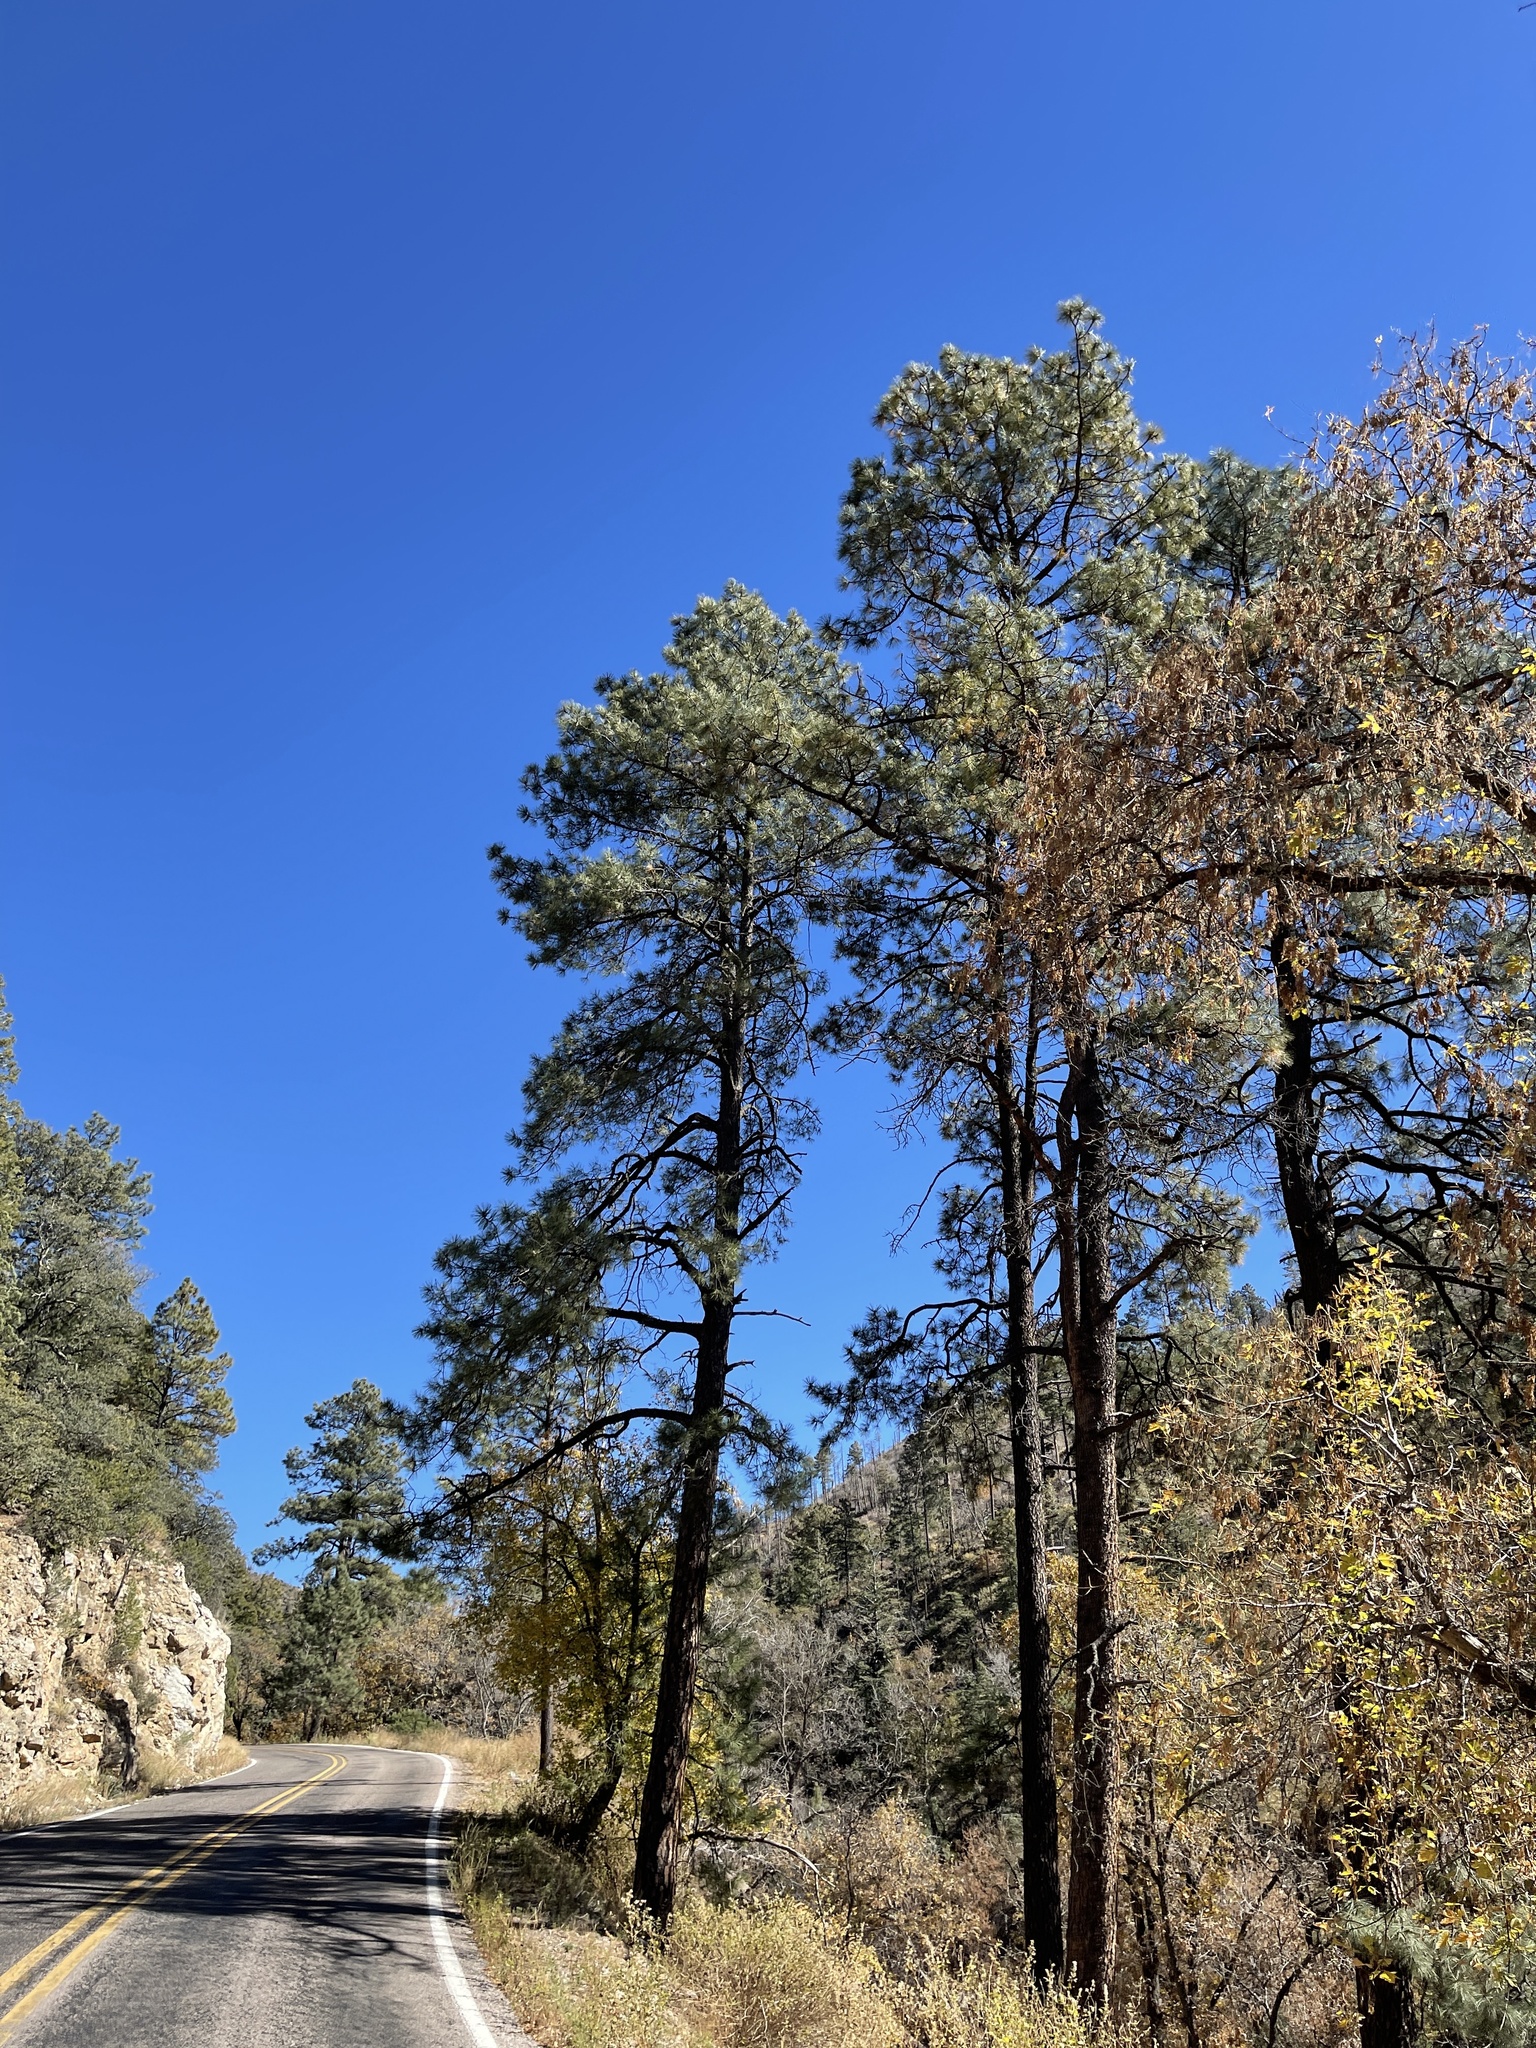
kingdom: Plantae
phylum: Tracheophyta
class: Pinopsida
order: Pinales
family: Pinaceae
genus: Pinus
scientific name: Pinus ponderosa
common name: Western yellow-pine
